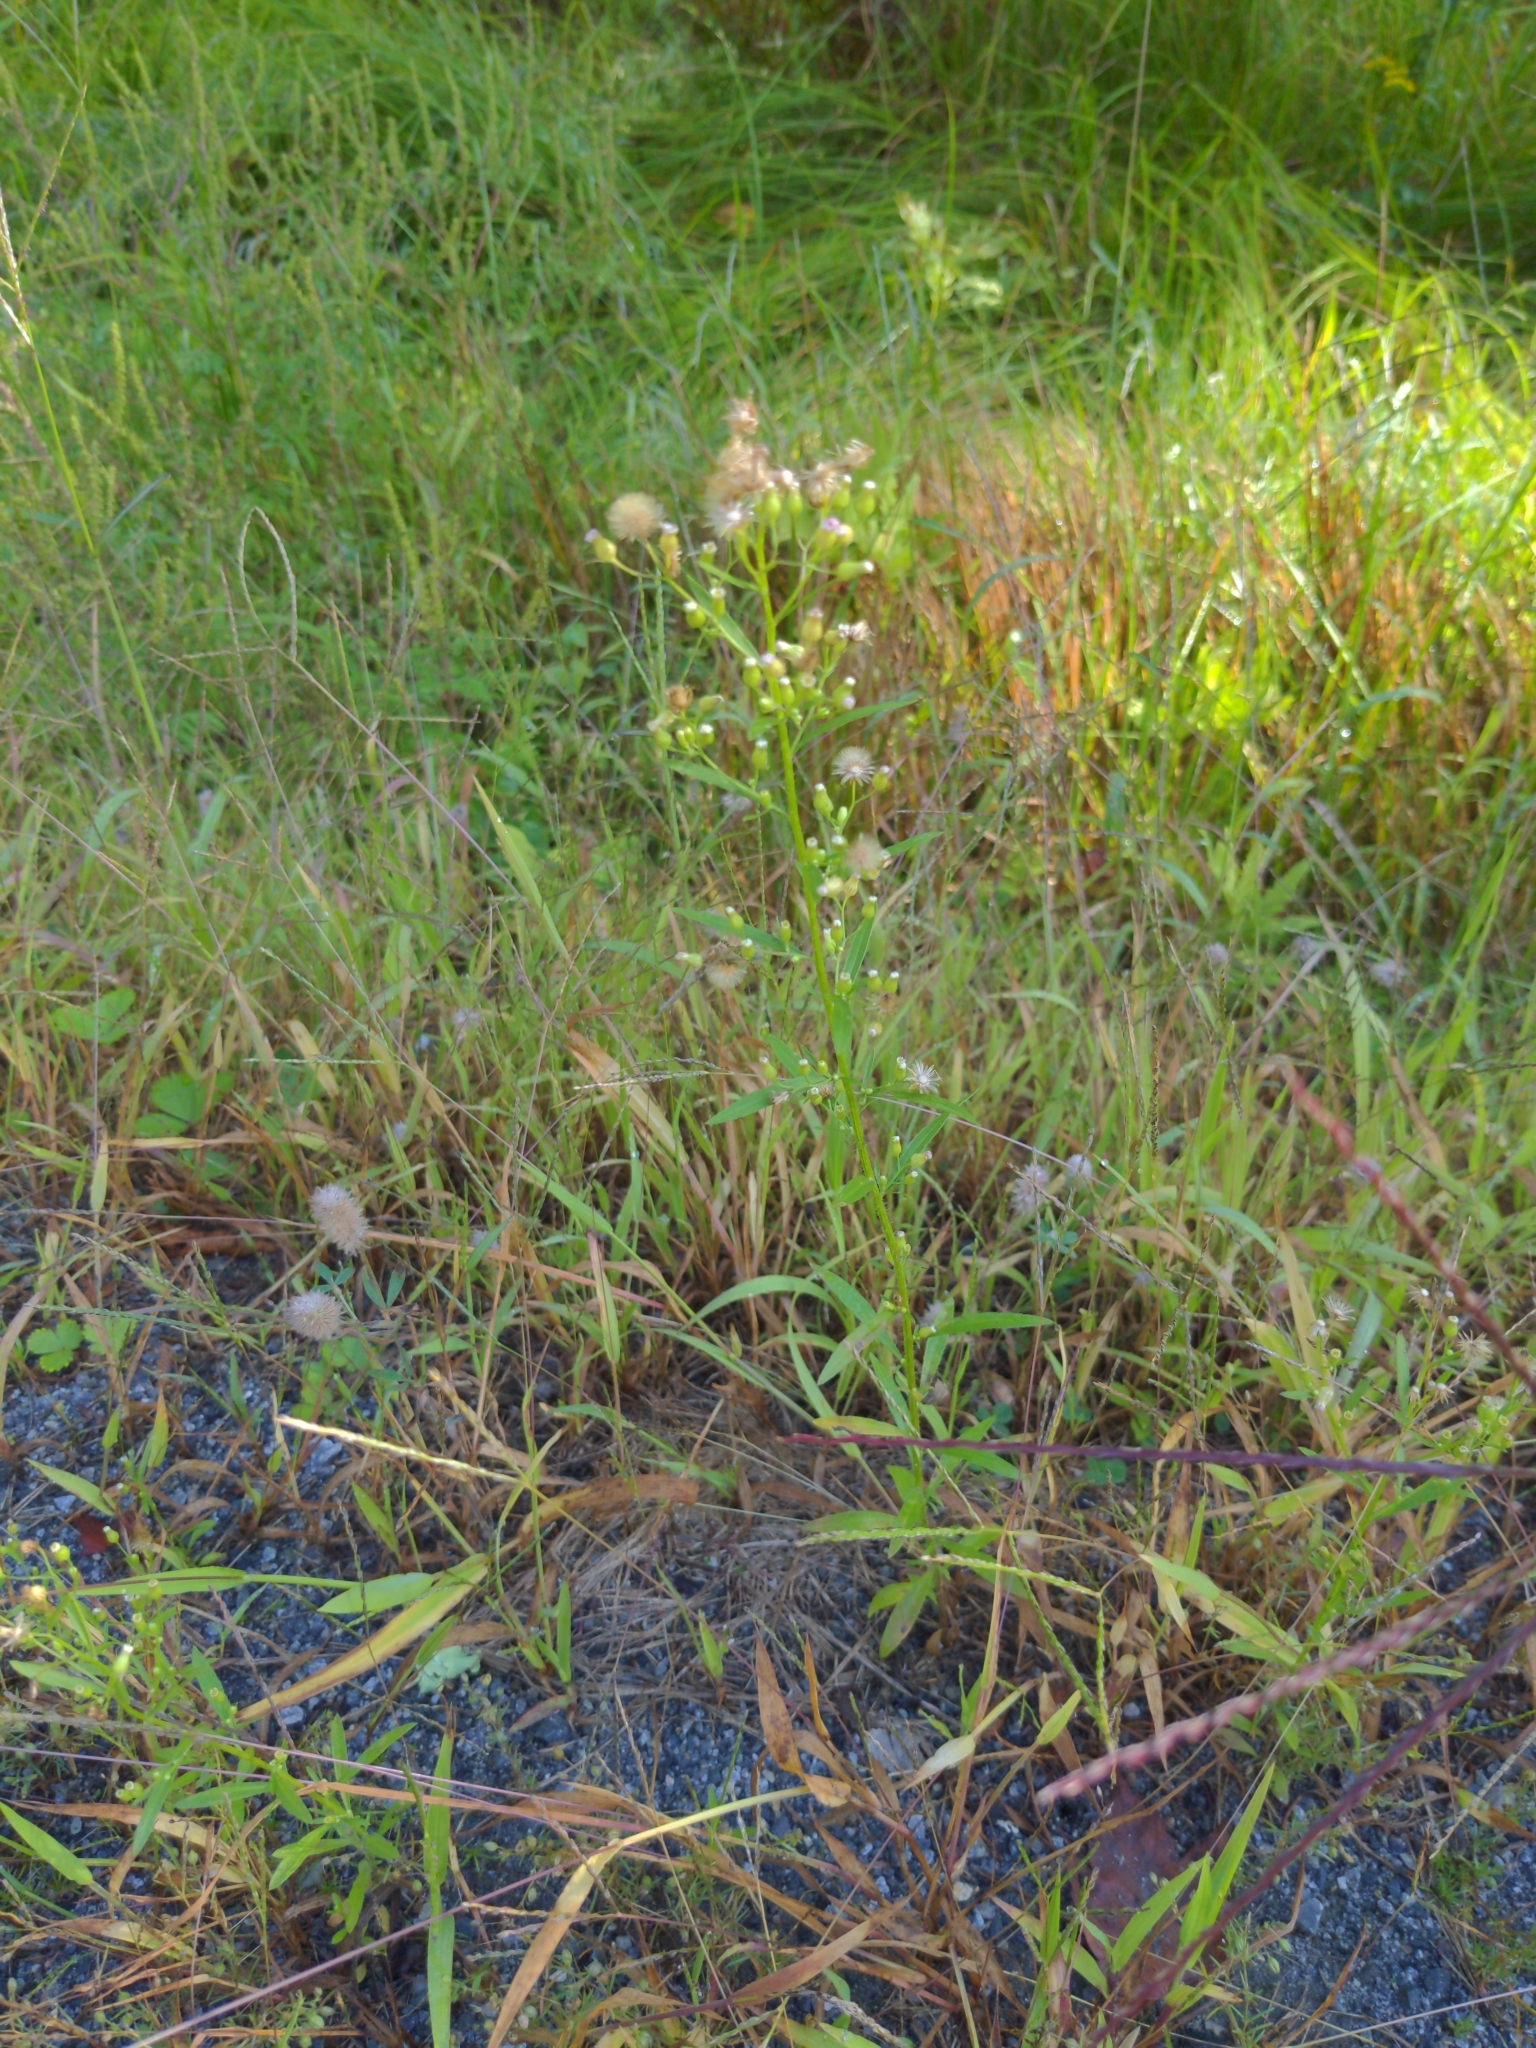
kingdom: Plantae
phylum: Tracheophyta
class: Magnoliopsida
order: Asterales
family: Asteraceae
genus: Erigeron
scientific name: Erigeron canadensis
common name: Canadian fleabane
